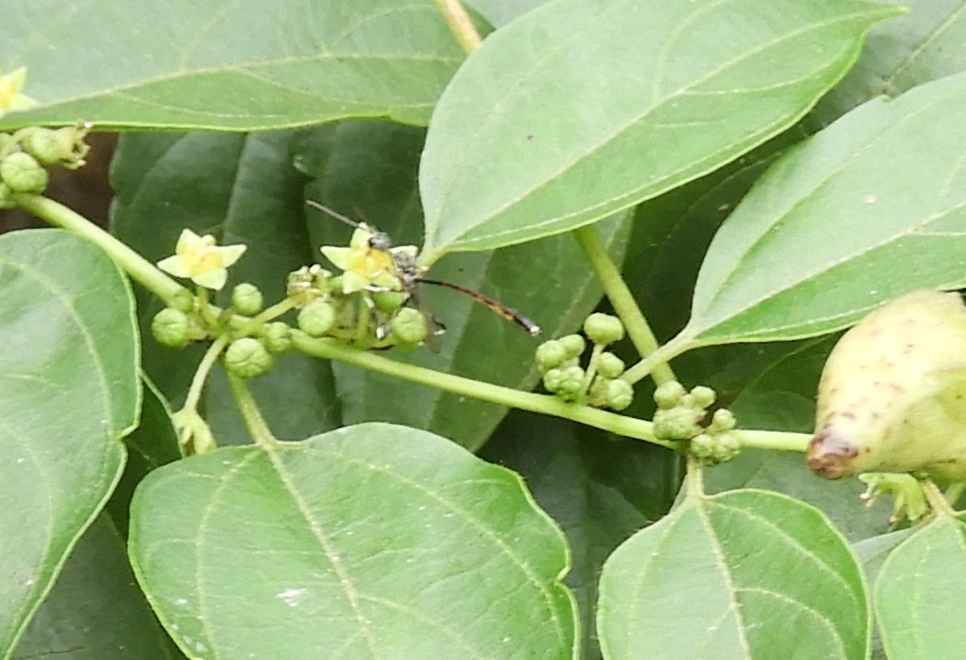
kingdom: Animalia
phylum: Arthropoda
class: Insecta
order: Hymenoptera
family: Gasteruptiidae
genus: Gasteruption
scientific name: Gasteruption
